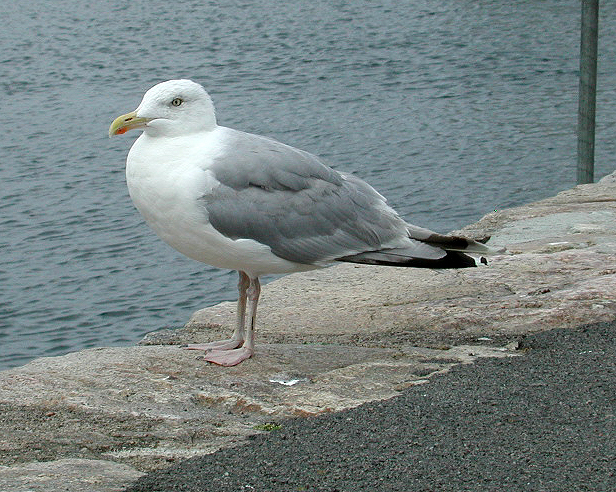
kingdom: Animalia
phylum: Chordata
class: Aves
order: Charadriiformes
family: Laridae
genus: Larus
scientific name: Larus argentatus
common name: Herring gull
